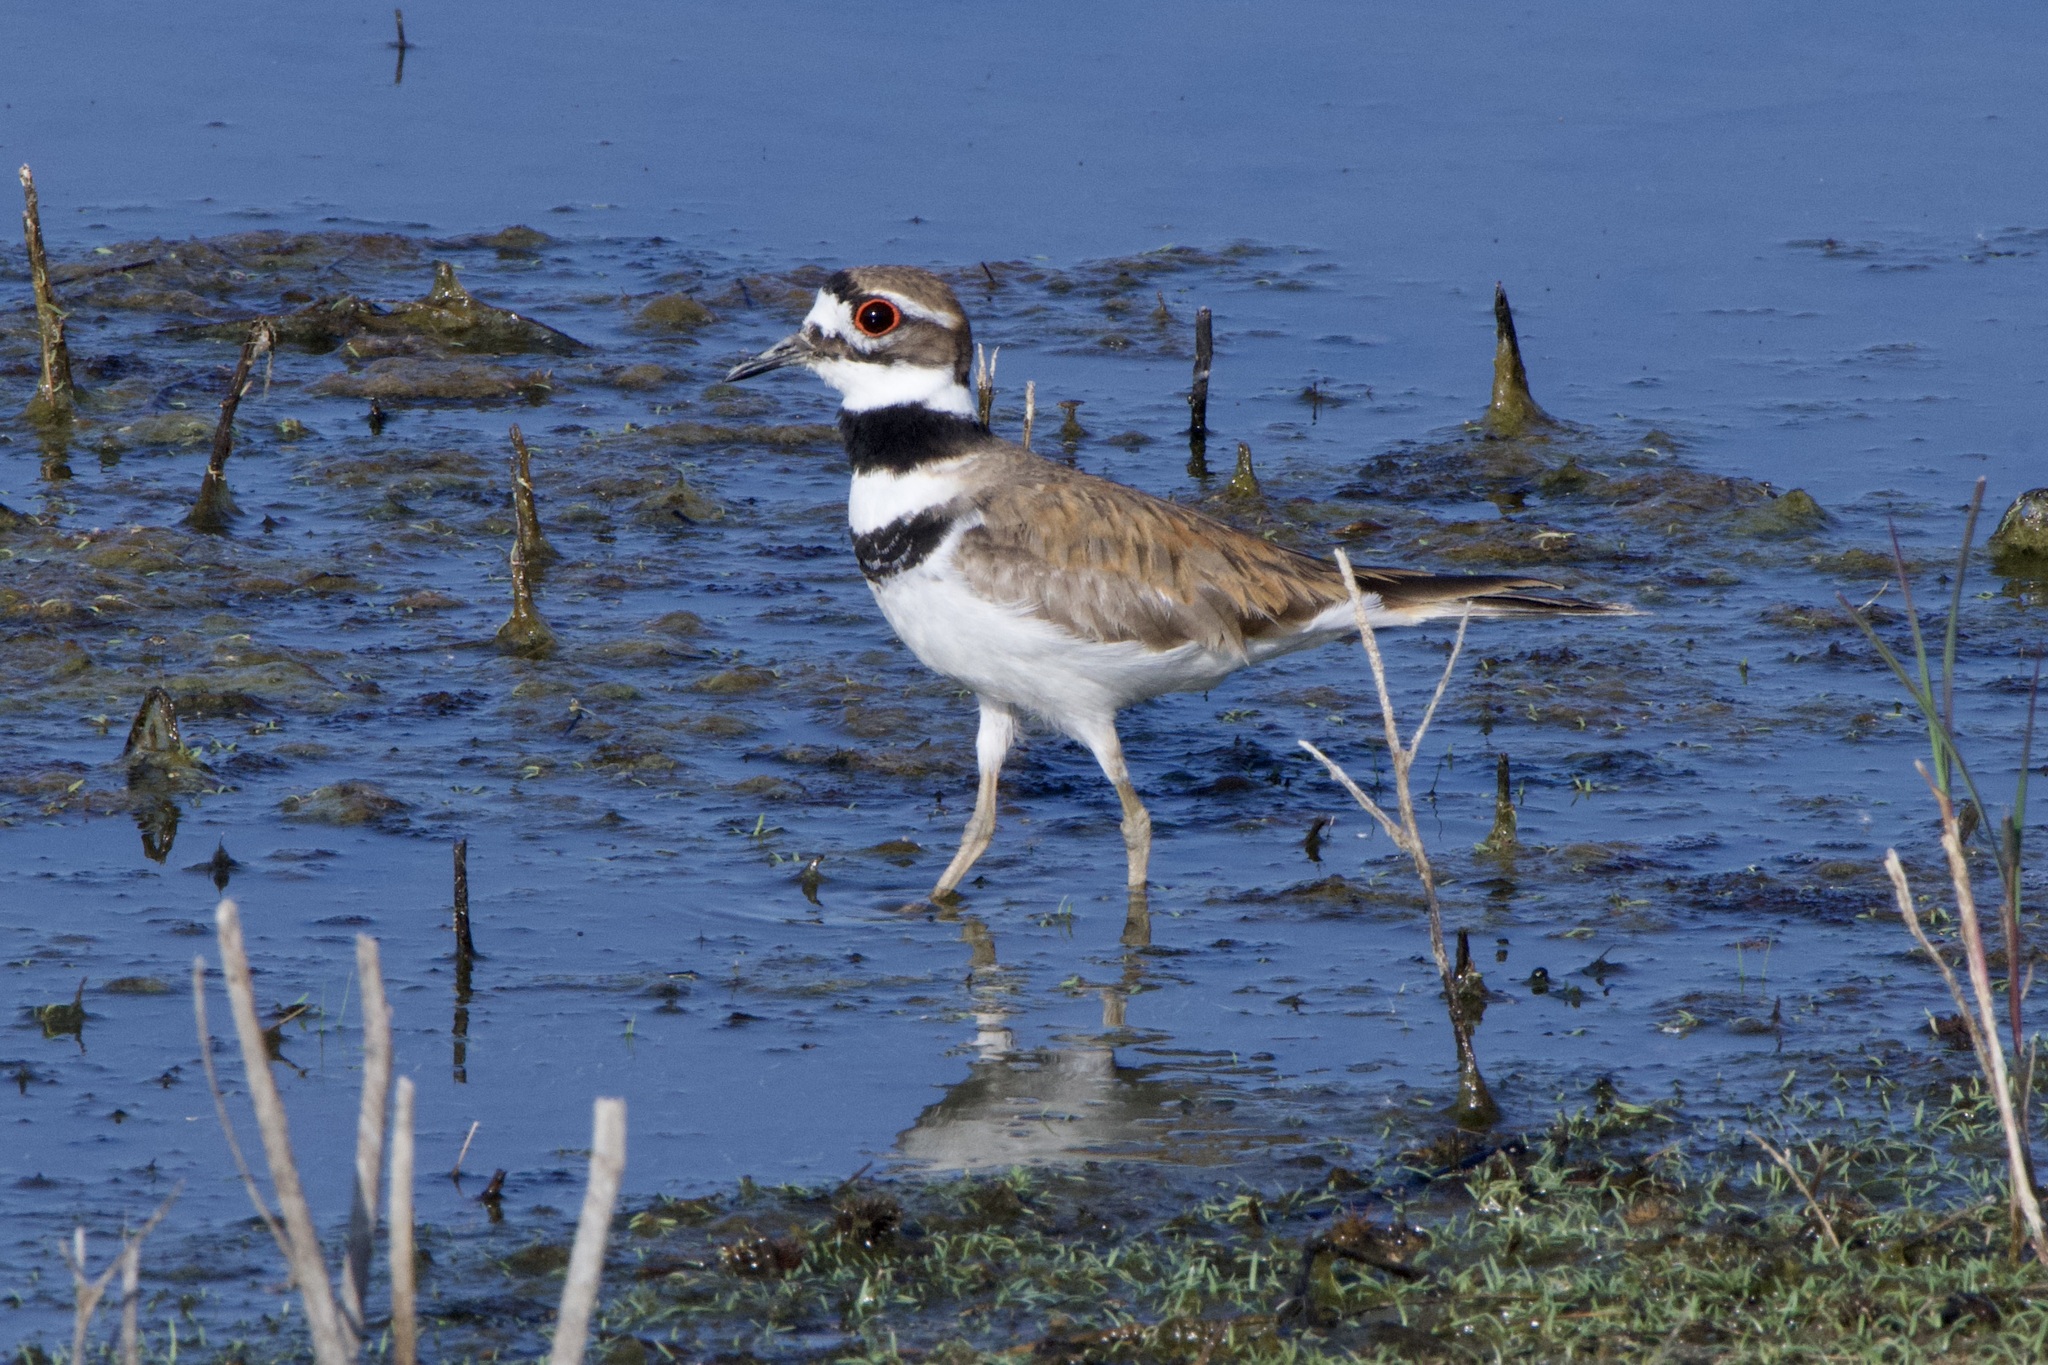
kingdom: Animalia
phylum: Chordata
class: Aves
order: Charadriiformes
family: Charadriidae
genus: Charadrius
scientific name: Charadrius vociferus
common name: Killdeer
